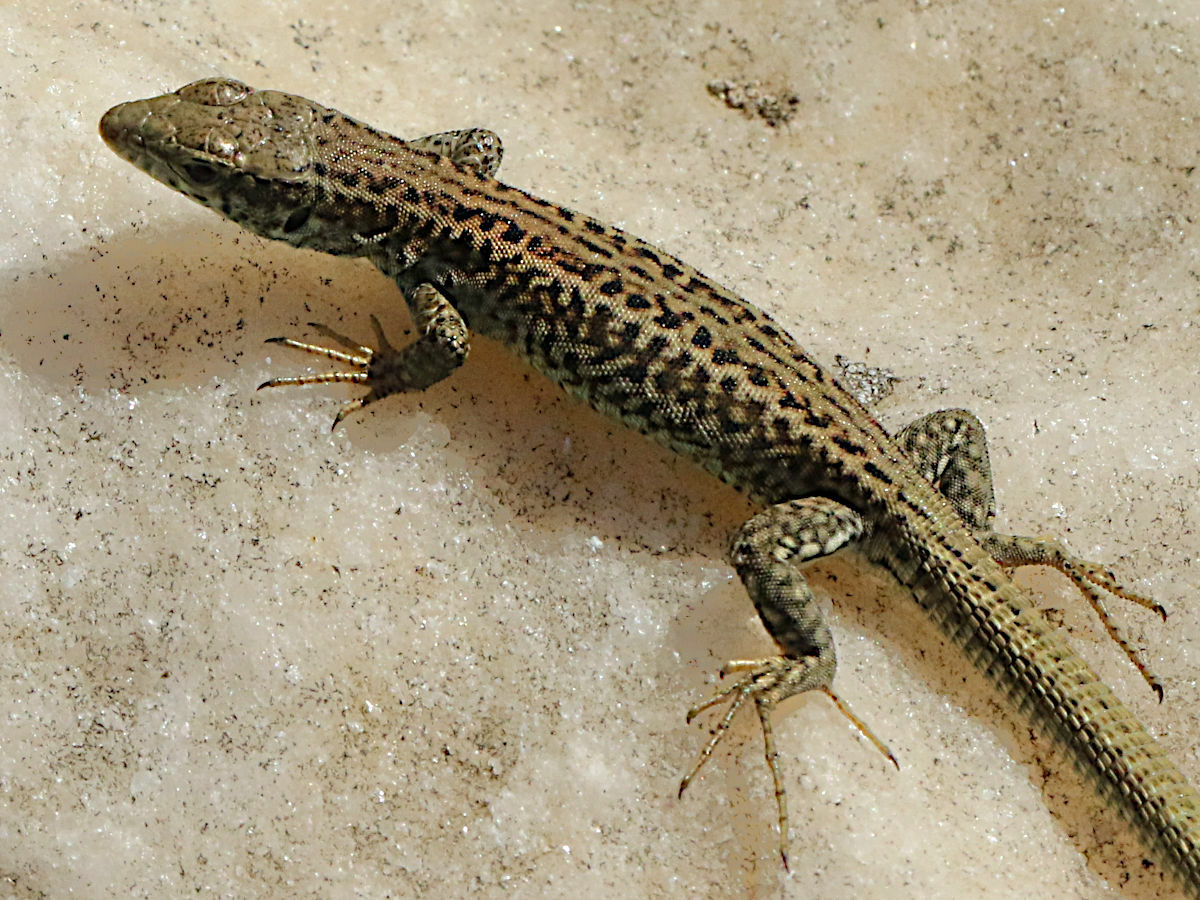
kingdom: Animalia
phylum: Chordata
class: Squamata
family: Lacertidae
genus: Podarcis
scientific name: Podarcis erhardii
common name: Erhard's wall lizard
